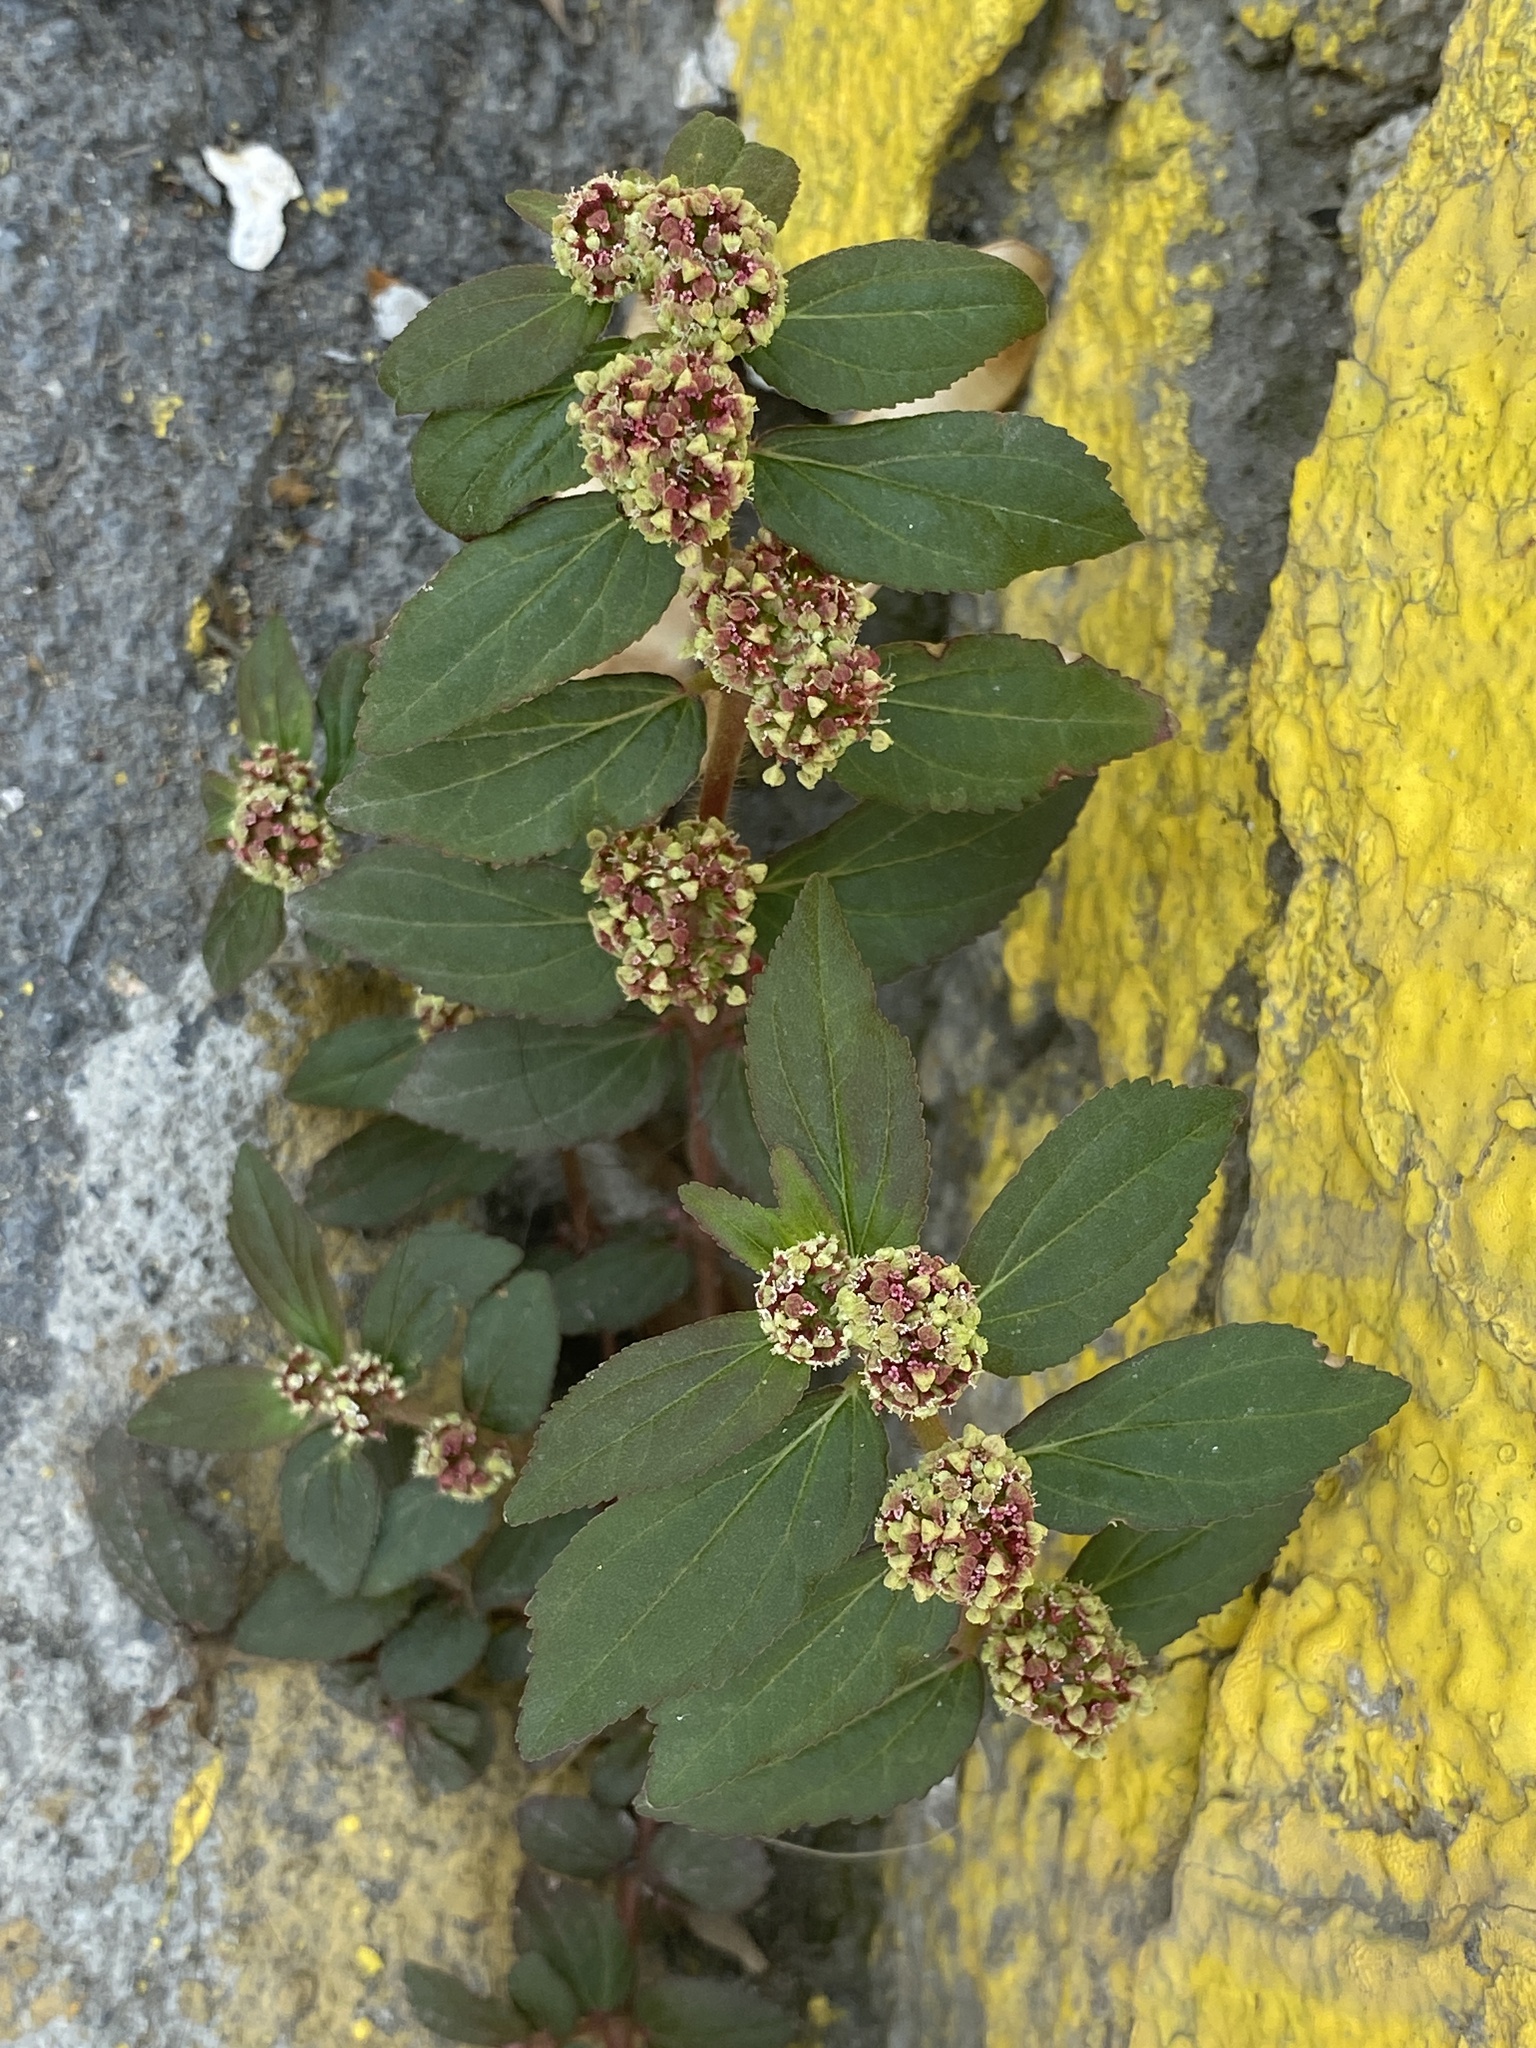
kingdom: Plantae
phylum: Tracheophyta
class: Magnoliopsida
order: Malpighiales
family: Euphorbiaceae
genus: Euphorbia
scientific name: Euphorbia hirta
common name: Pillpod sandmat
